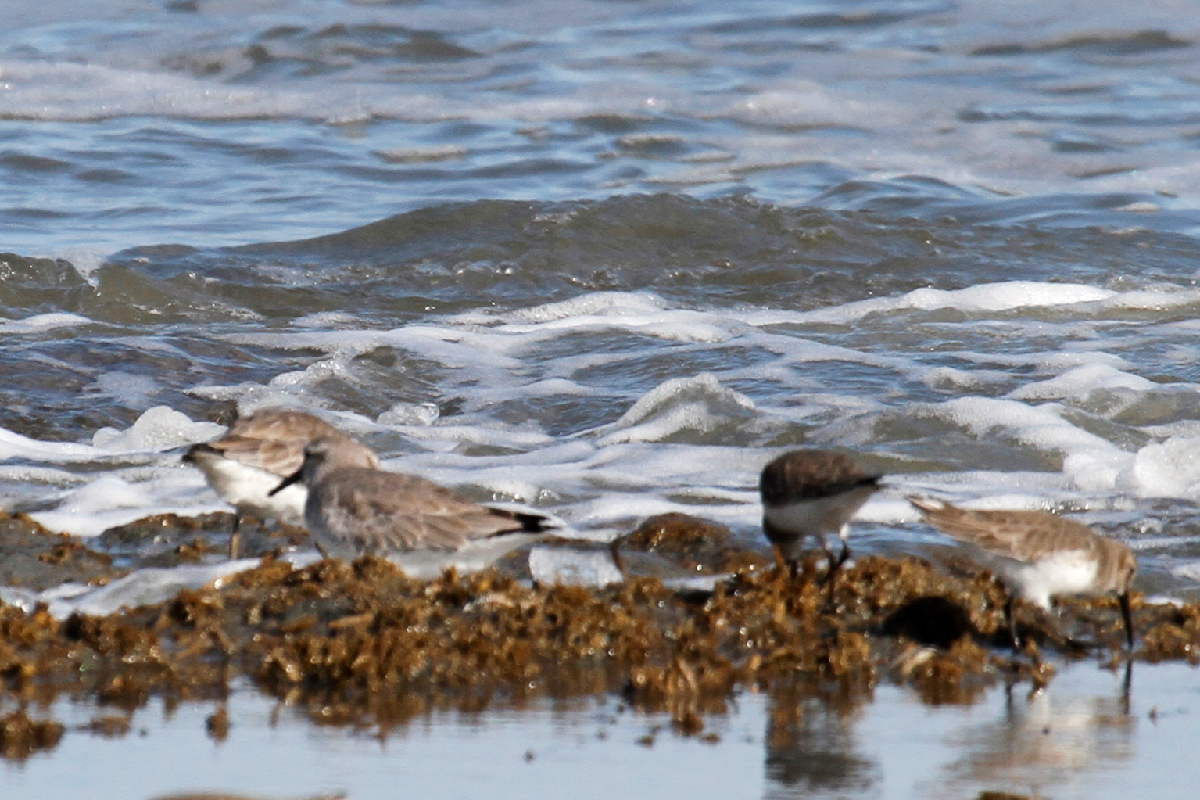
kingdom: Animalia
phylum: Chordata
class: Aves
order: Charadriiformes
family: Scolopacidae
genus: Calidris
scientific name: Calidris canutus
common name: Red knot
